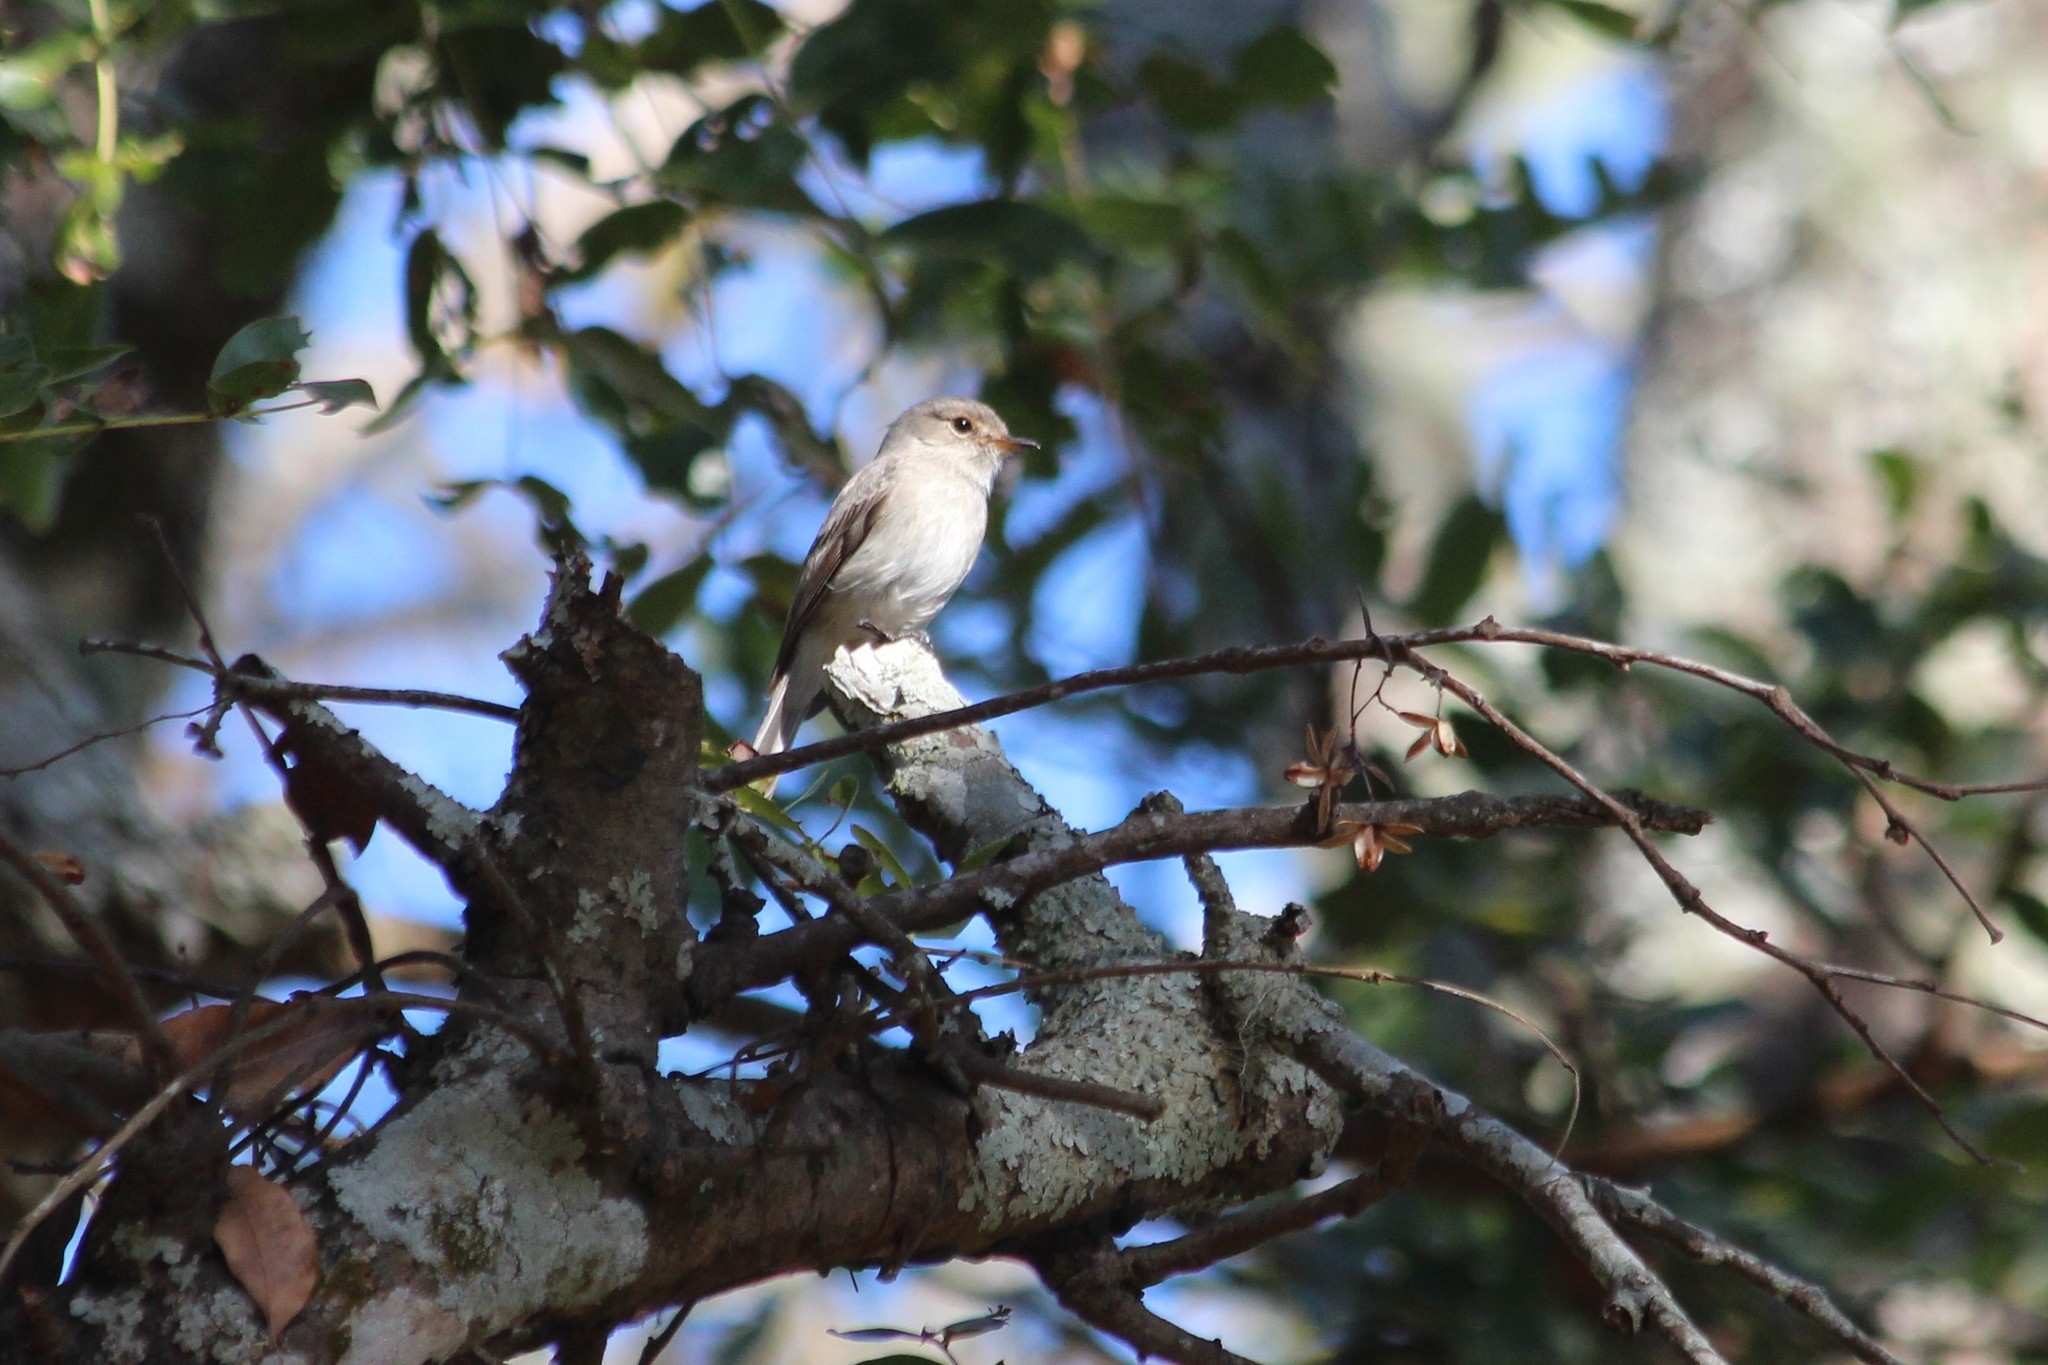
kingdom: Animalia
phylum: Chordata
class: Aves
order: Passeriformes
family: Muscicapidae
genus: Muscicapa
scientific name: Muscicapa adusta
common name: African dusky flycatcher
